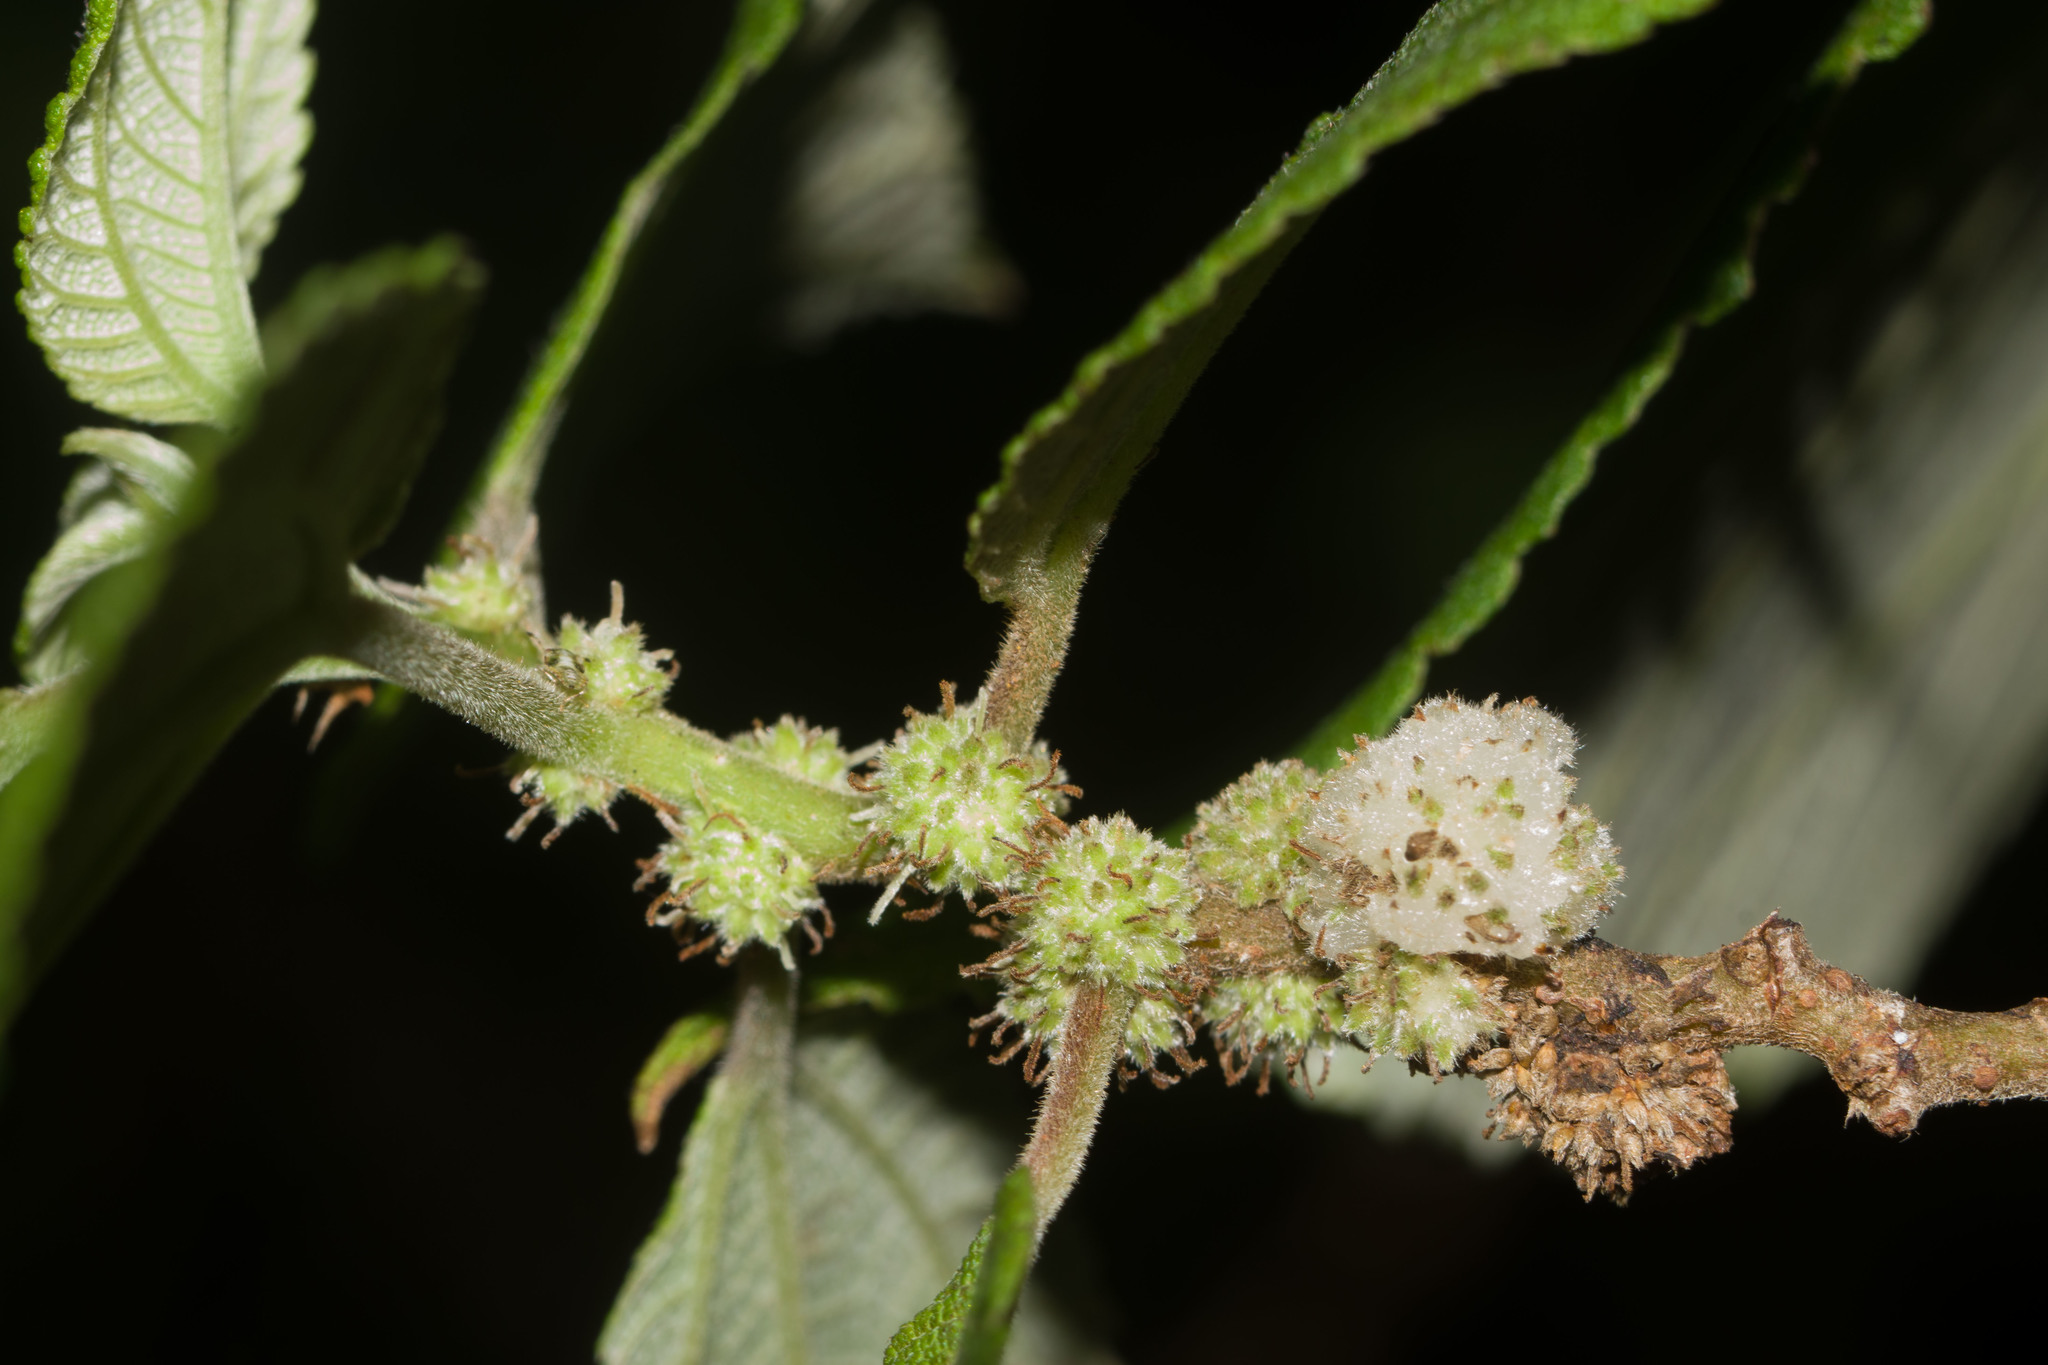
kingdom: Plantae
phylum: Tracheophyta
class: Magnoliopsida
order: Rosales
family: Urticaceae
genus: Pipturus
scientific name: Pipturus albidus
